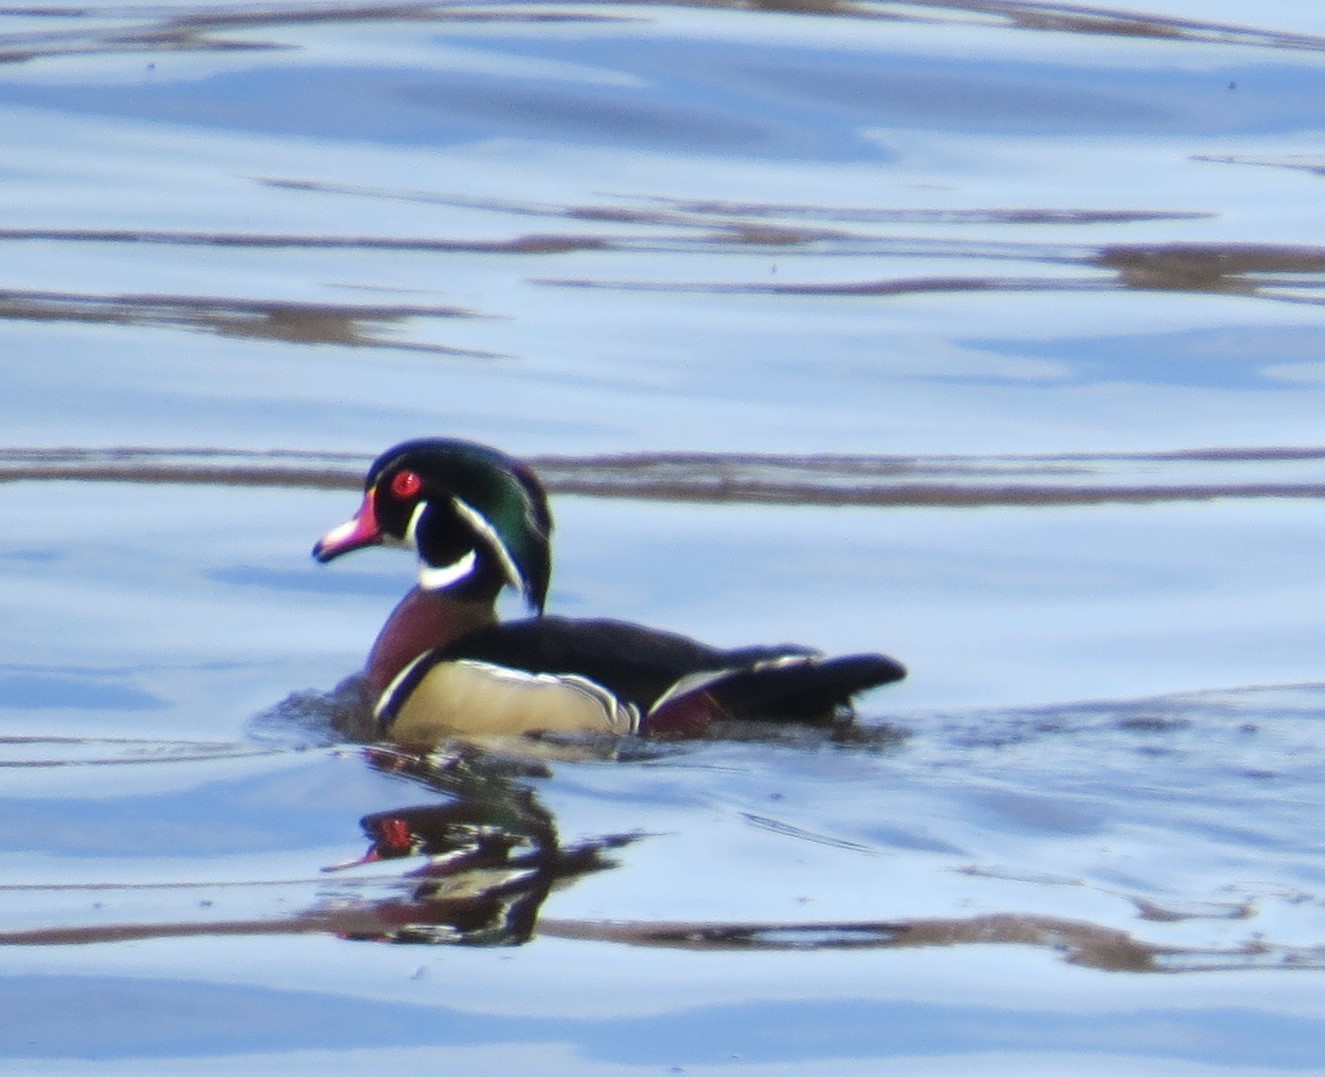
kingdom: Animalia
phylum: Chordata
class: Aves
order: Anseriformes
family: Anatidae
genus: Aix
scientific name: Aix sponsa
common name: Wood duck
